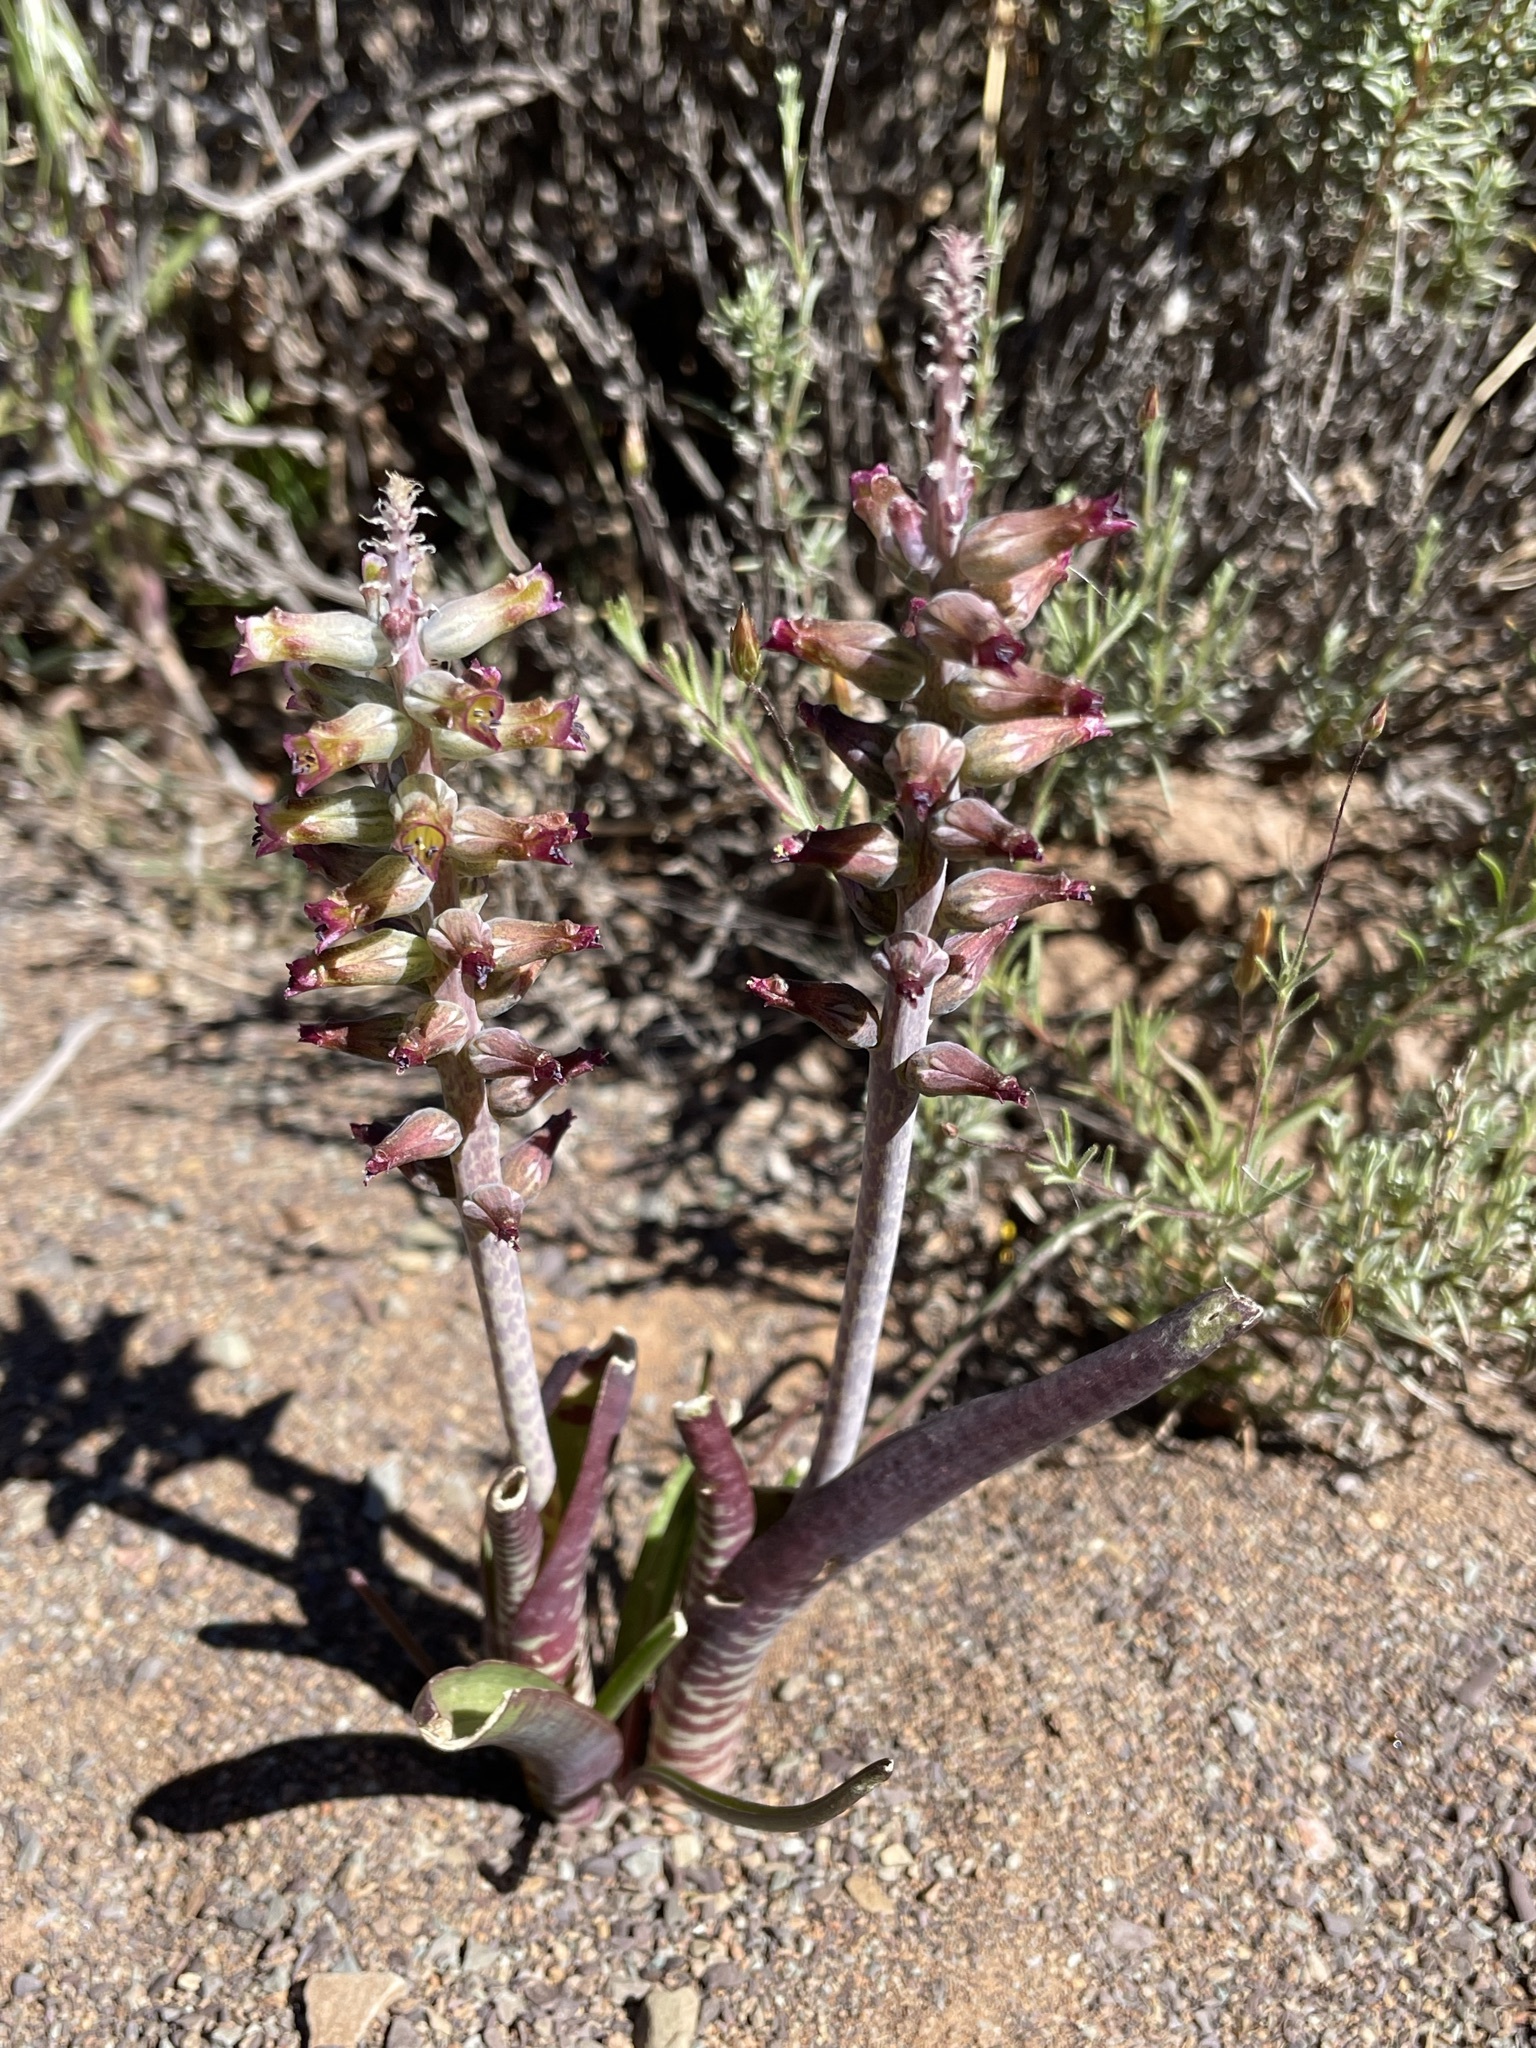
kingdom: Plantae
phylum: Tracheophyta
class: Liliopsida
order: Asparagales
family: Asparagaceae
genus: Lachenalia
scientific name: Lachenalia obscura
